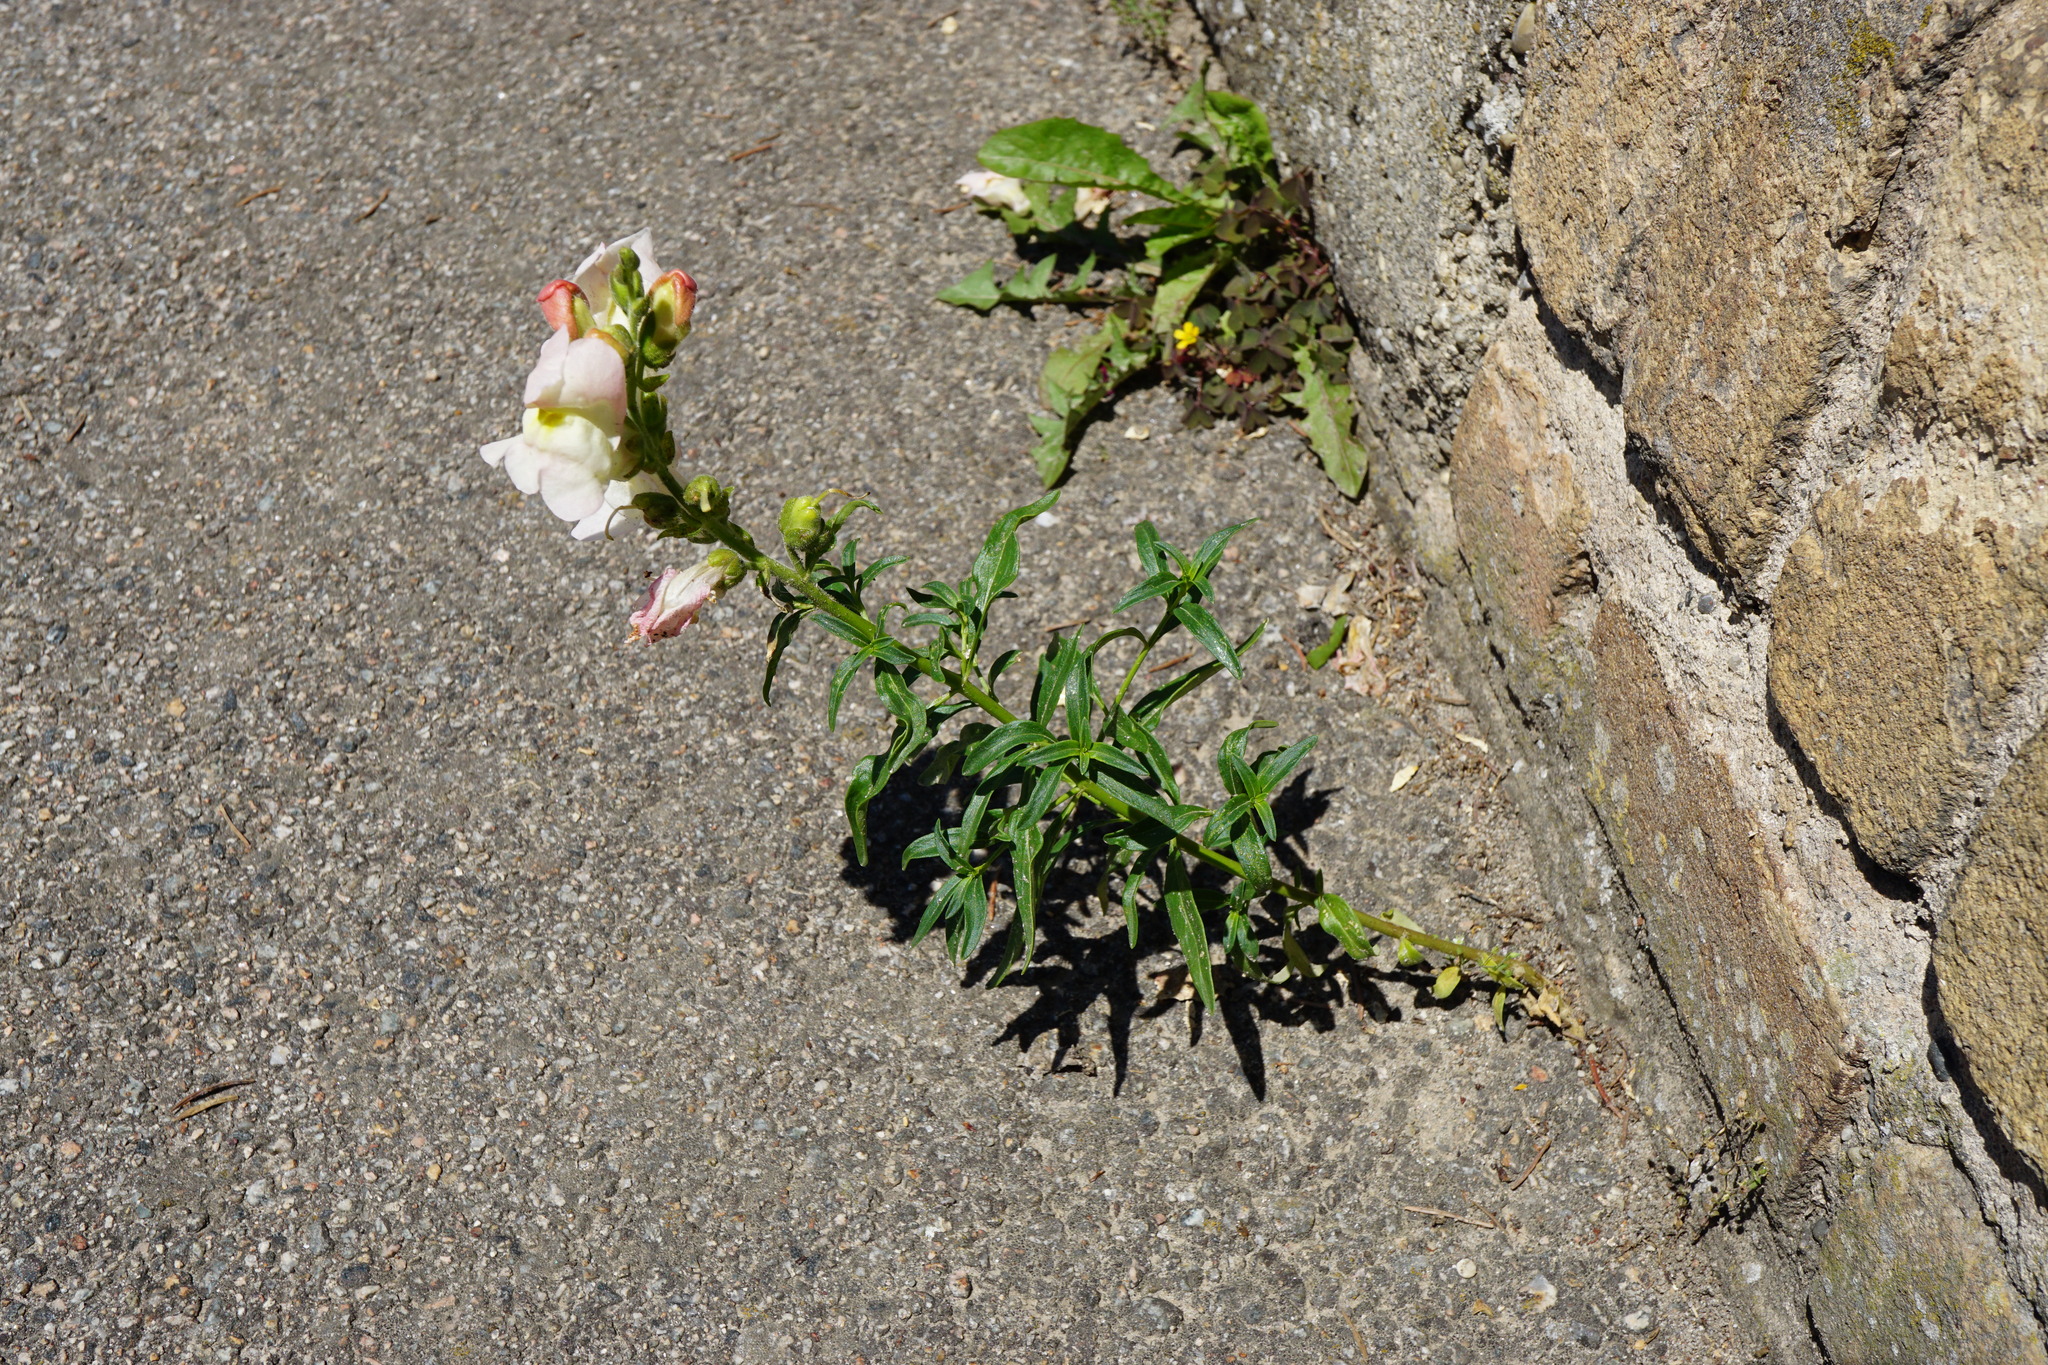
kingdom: Plantae
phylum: Tracheophyta
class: Magnoliopsida
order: Lamiales
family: Plantaginaceae
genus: Antirrhinum
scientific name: Antirrhinum majus
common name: Snapdragon
